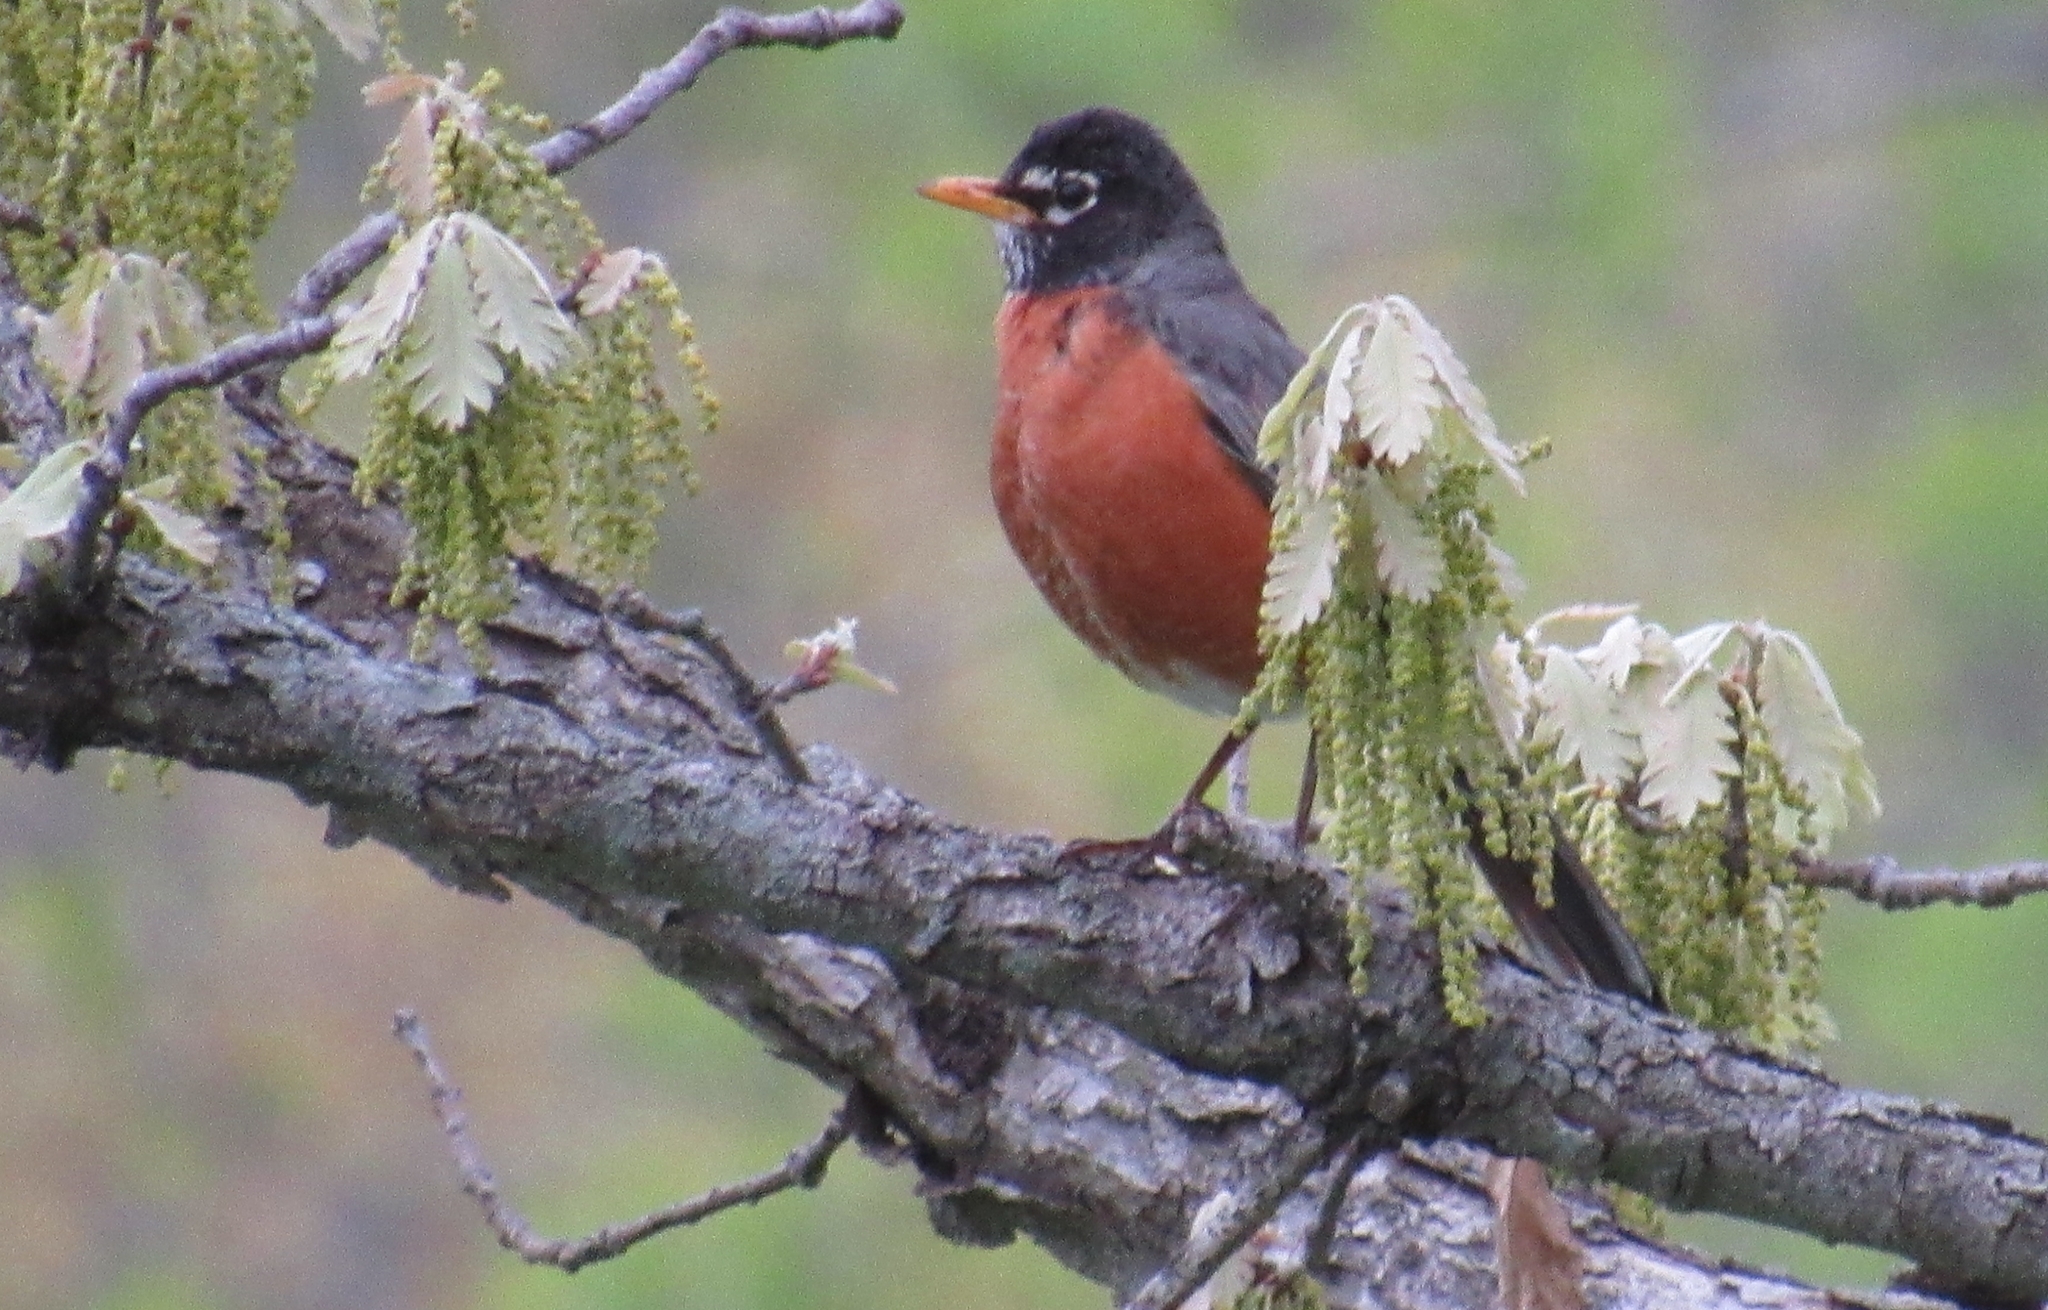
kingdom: Animalia
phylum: Chordata
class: Aves
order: Passeriformes
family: Turdidae
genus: Turdus
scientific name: Turdus migratorius
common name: American robin
